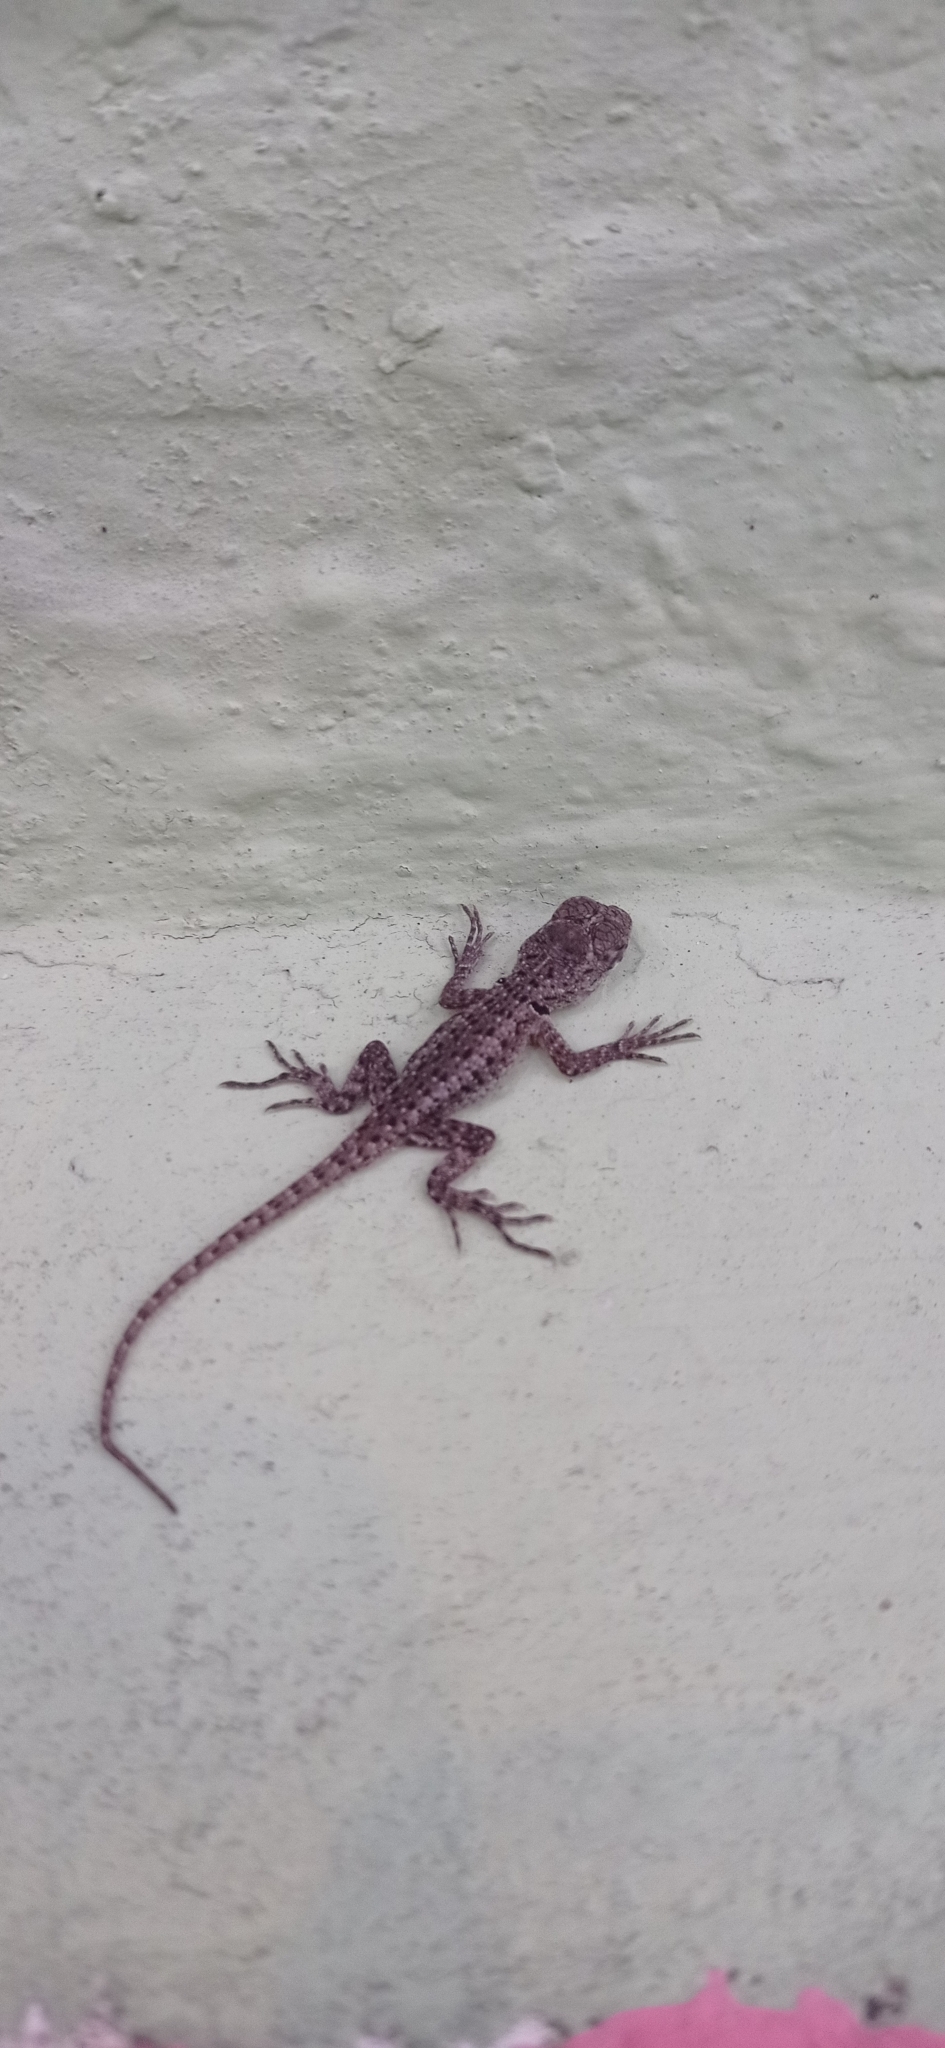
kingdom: Animalia
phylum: Chordata
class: Squamata
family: Tropiduridae
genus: Tropidurus
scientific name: Tropidurus hispidus
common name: Peters' lava lizard
